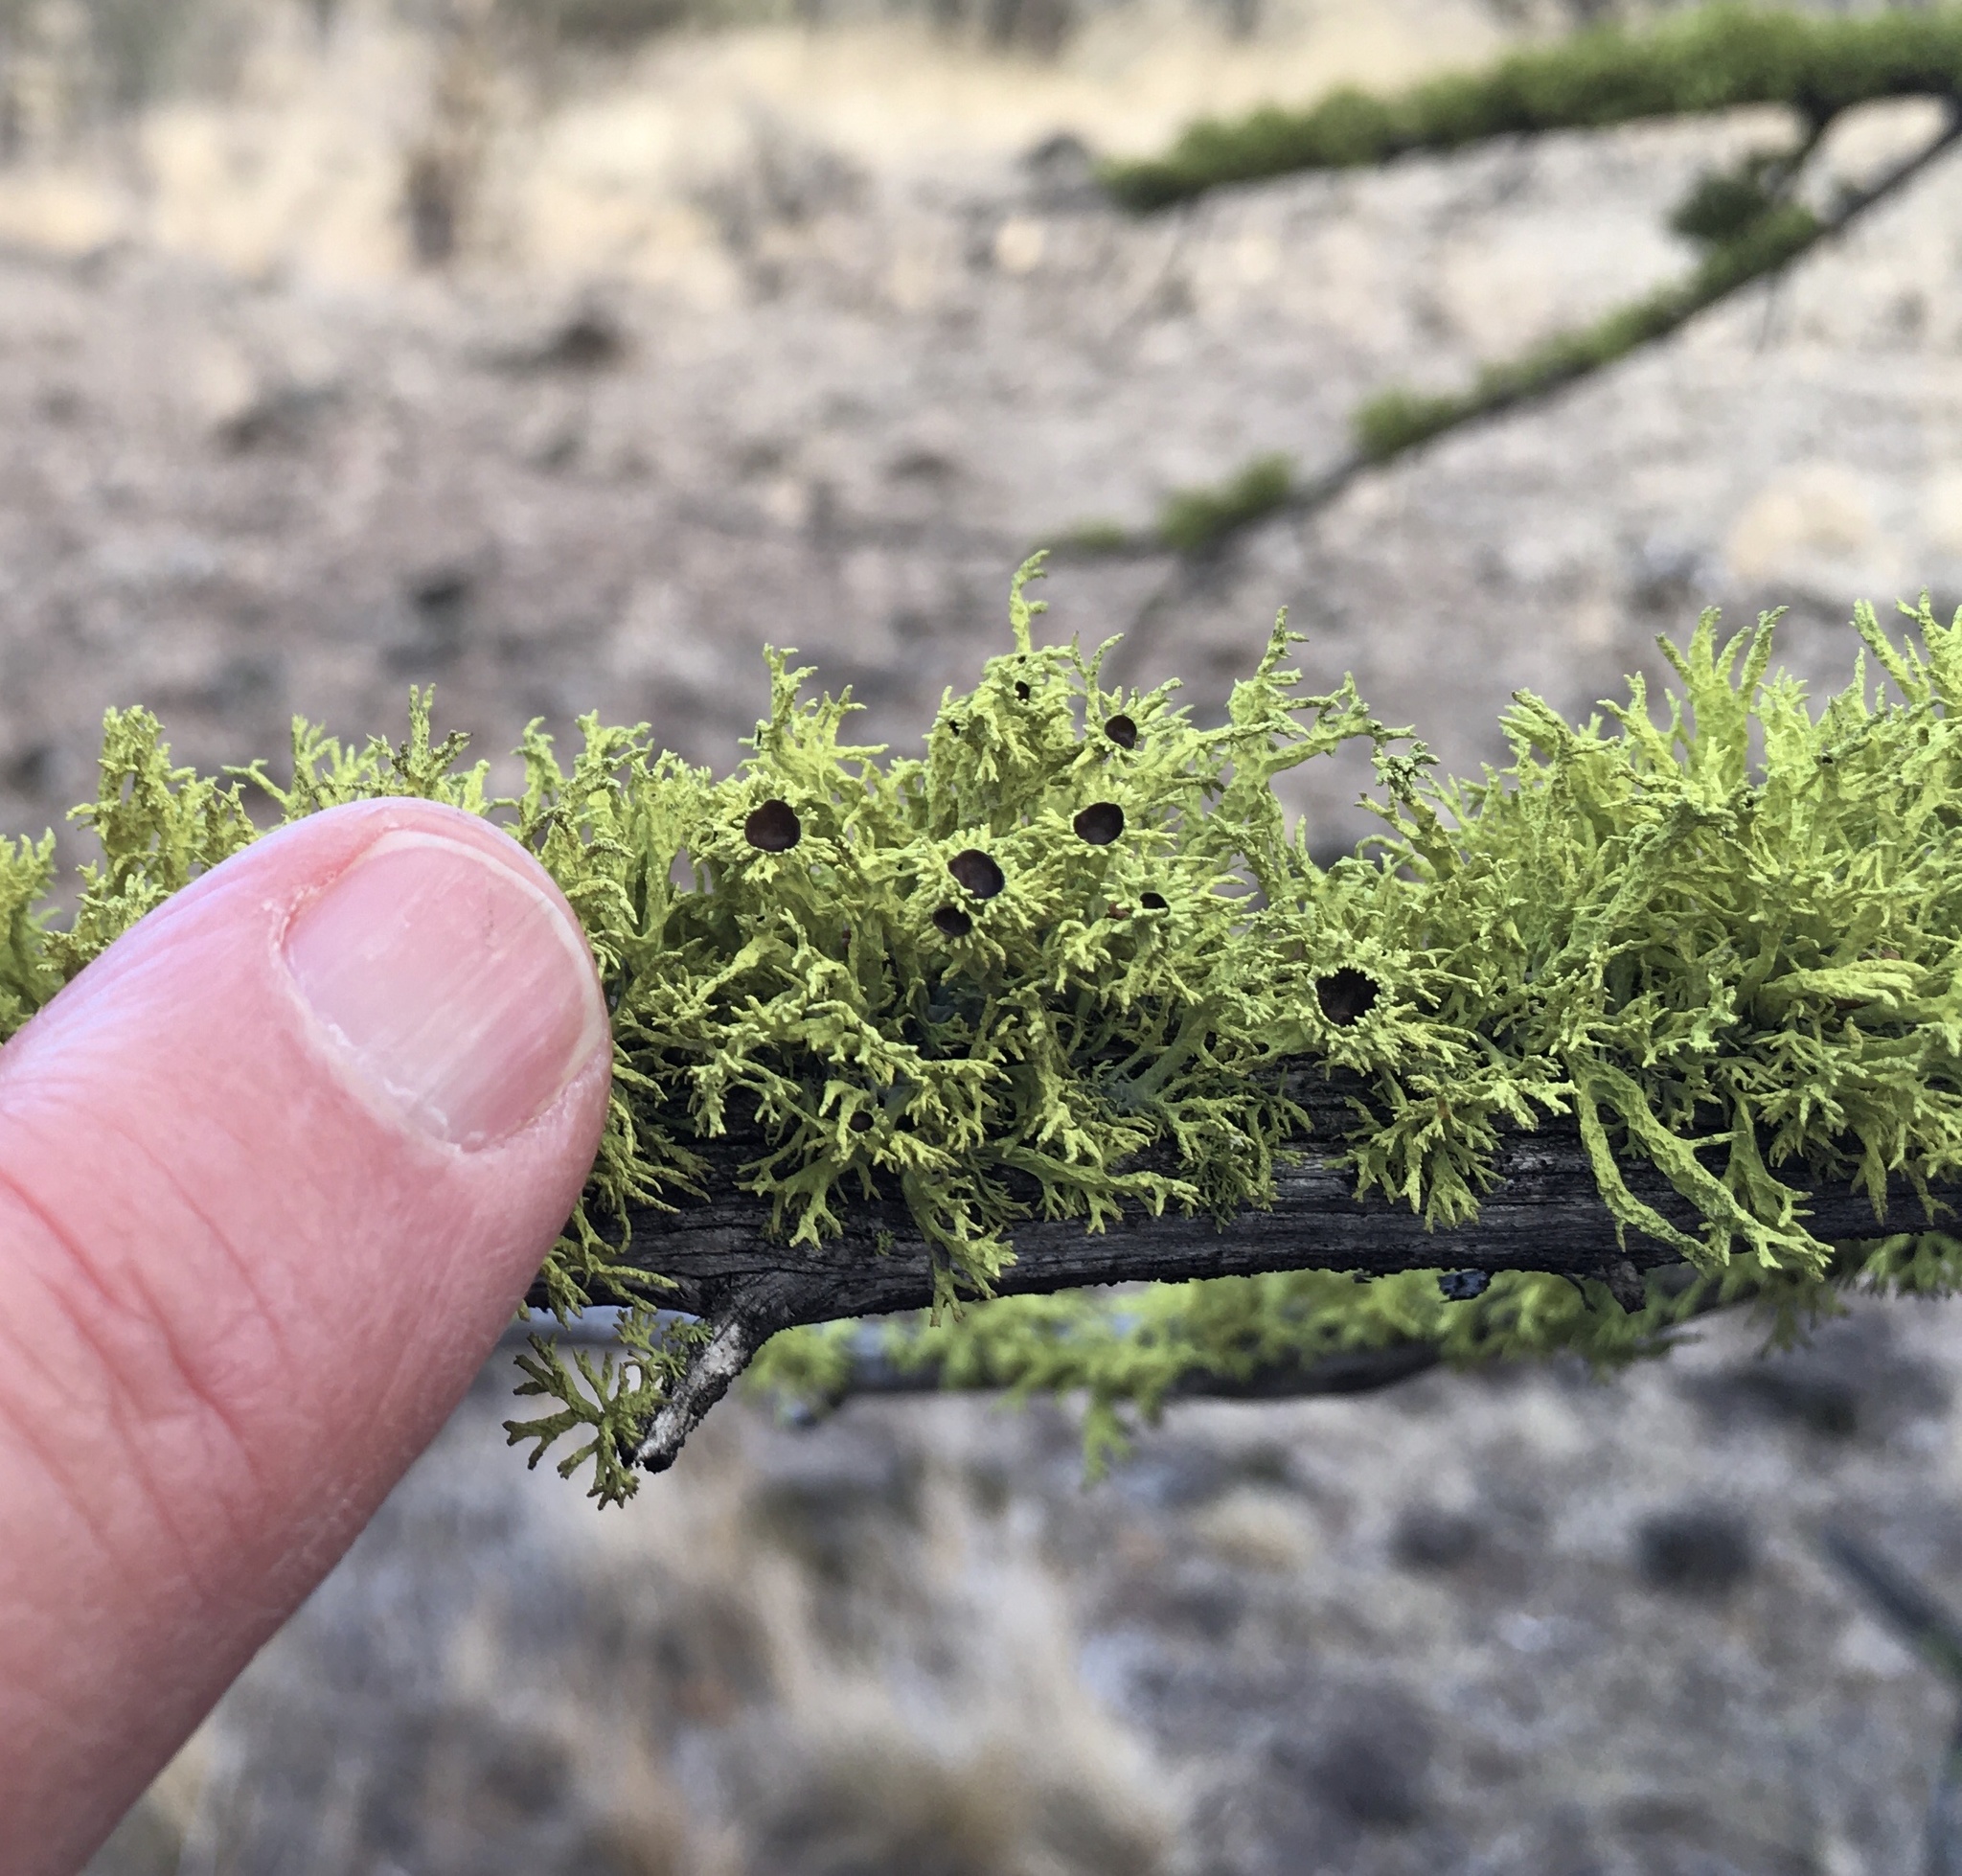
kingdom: Fungi
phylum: Ascomycota
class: Lecanoromycetes
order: Lecanorales
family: Parmeliaceae
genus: Letharia
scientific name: Letharia columbiana
